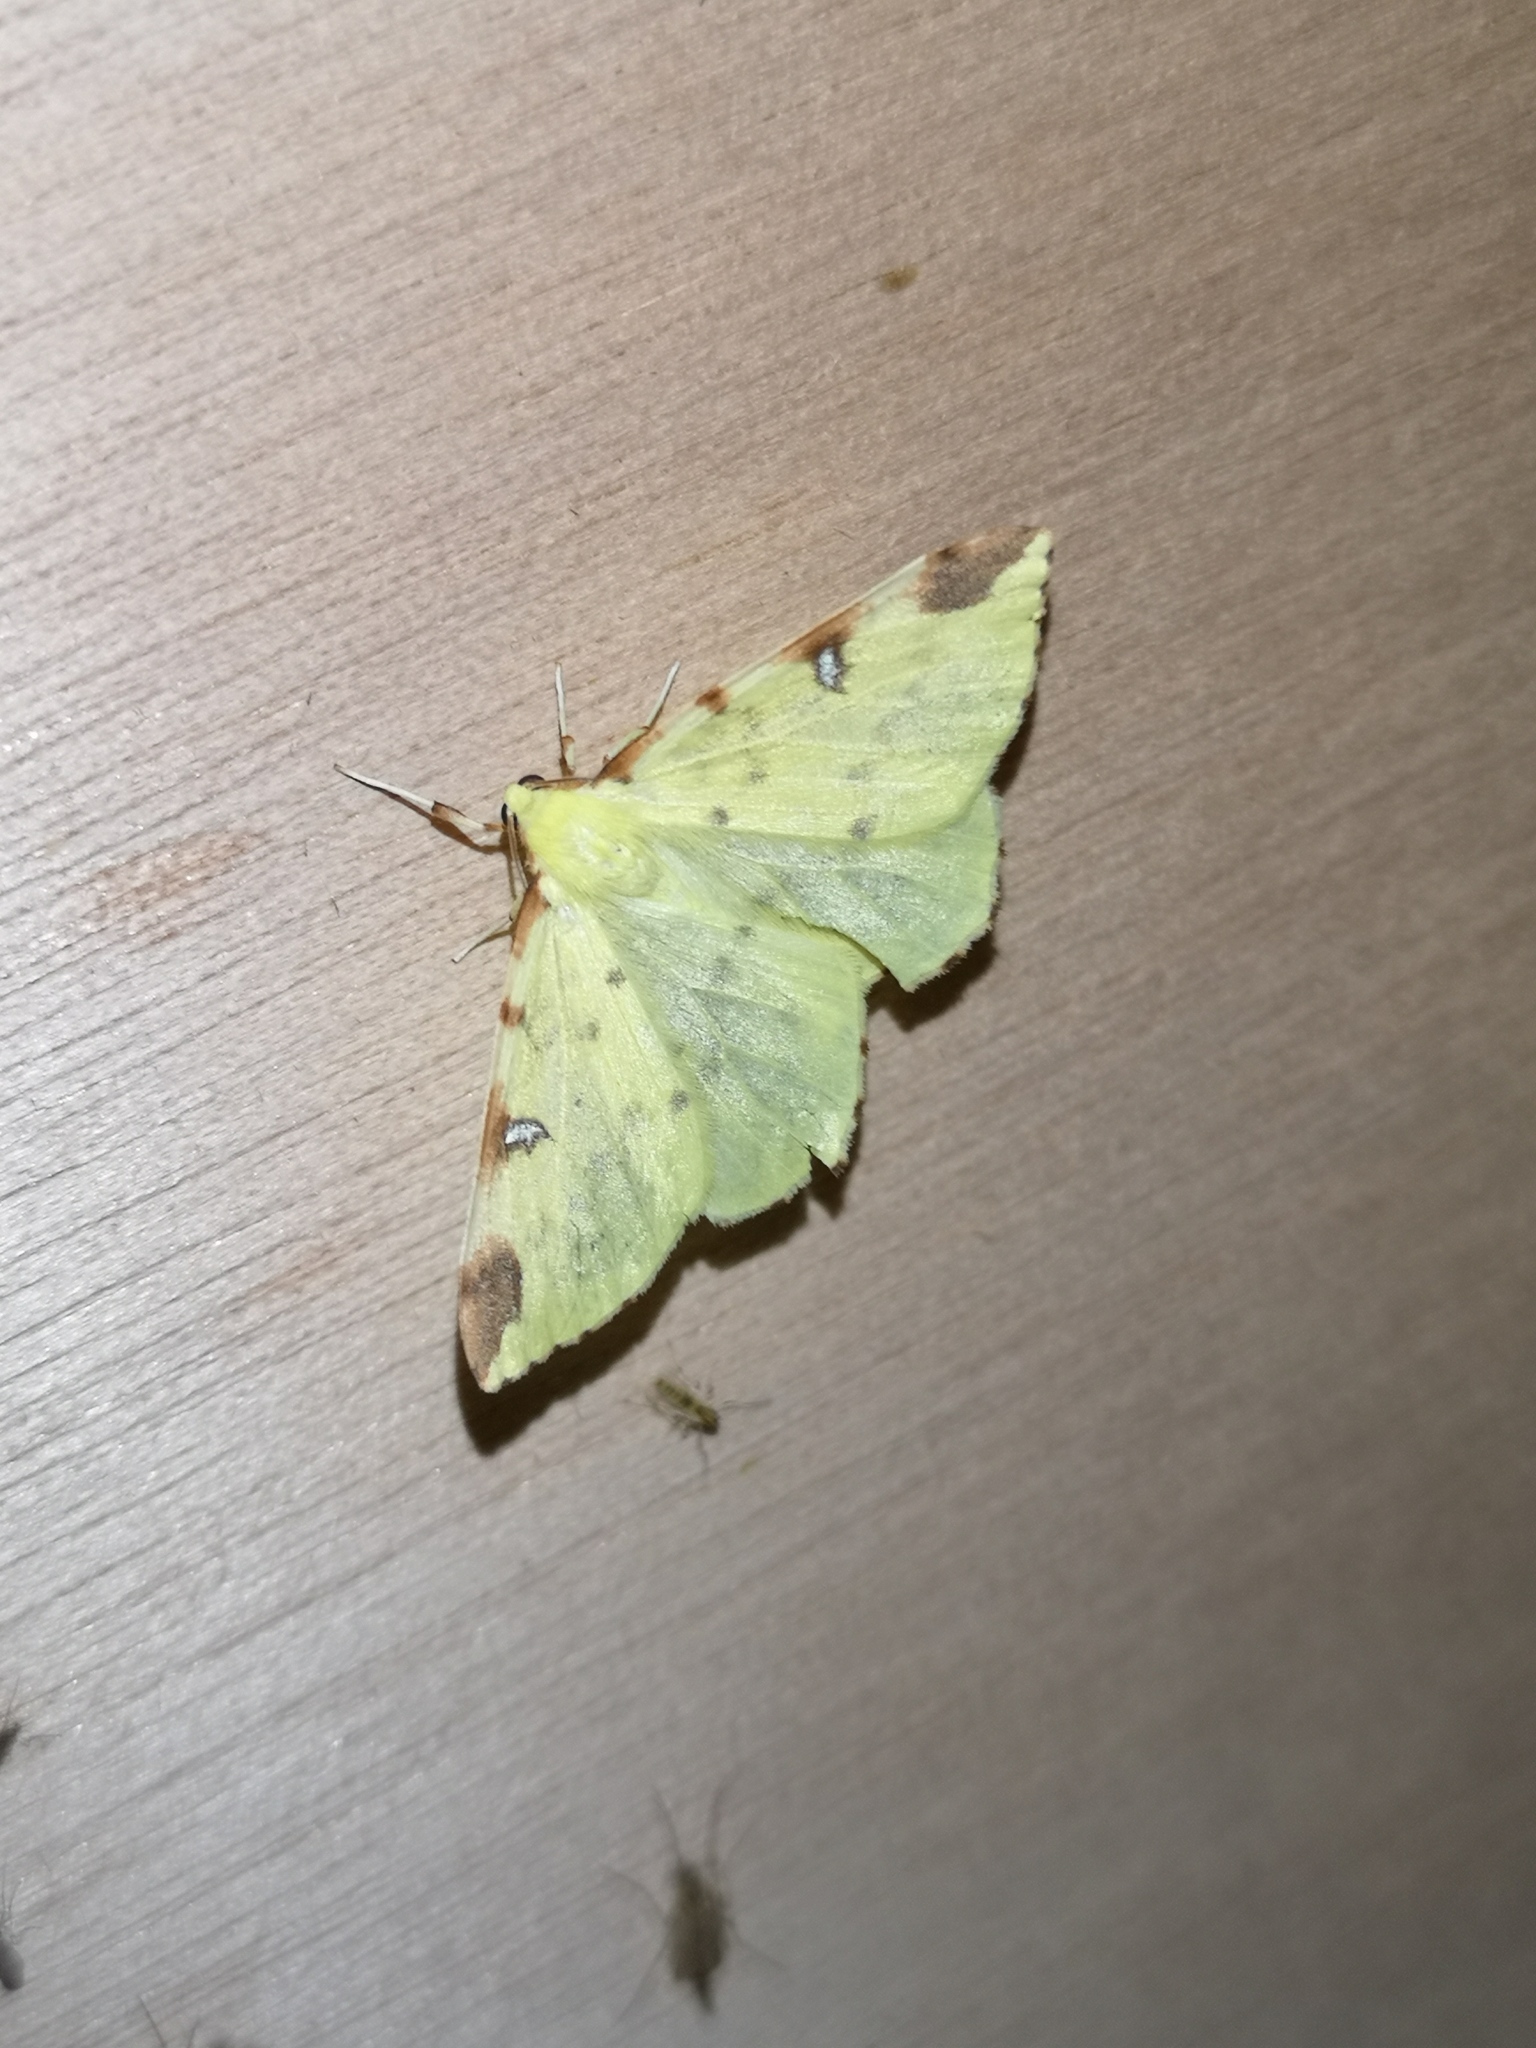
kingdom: Animalia
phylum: Arthropoda
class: Insecta
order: Lepidoptera
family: Geometridae
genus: Opisthograptis
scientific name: Opisthograptis luteolata
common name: Brimstone moth
